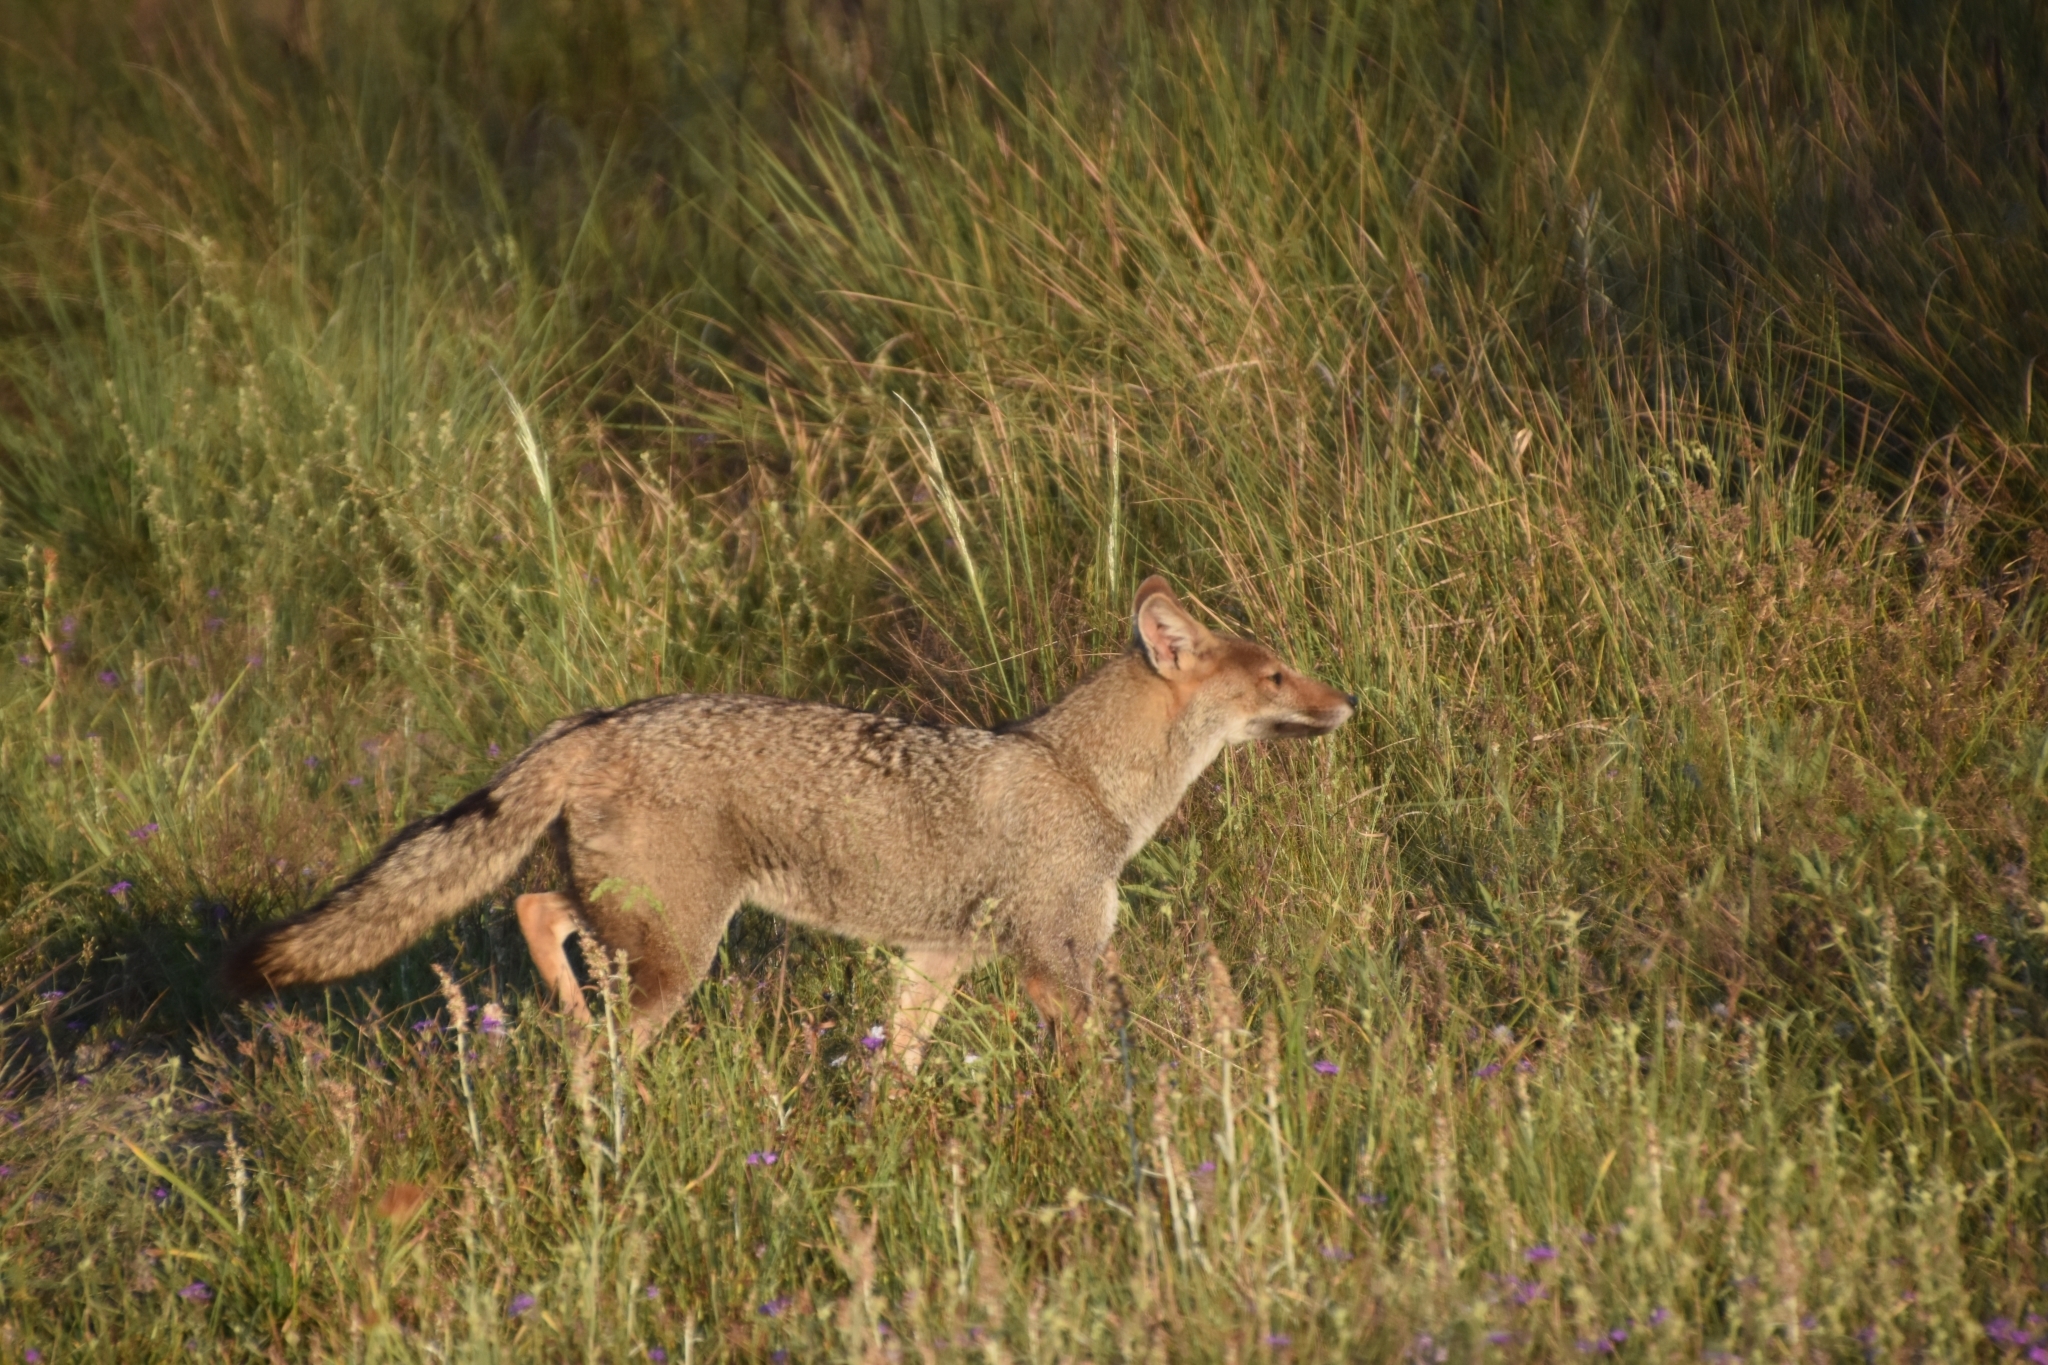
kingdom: Animalia
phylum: Chordata
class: Mammalia
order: Carnivora
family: Canidae
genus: Lycalopex
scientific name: Lycalopex gymnocercus
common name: Pampas fox
